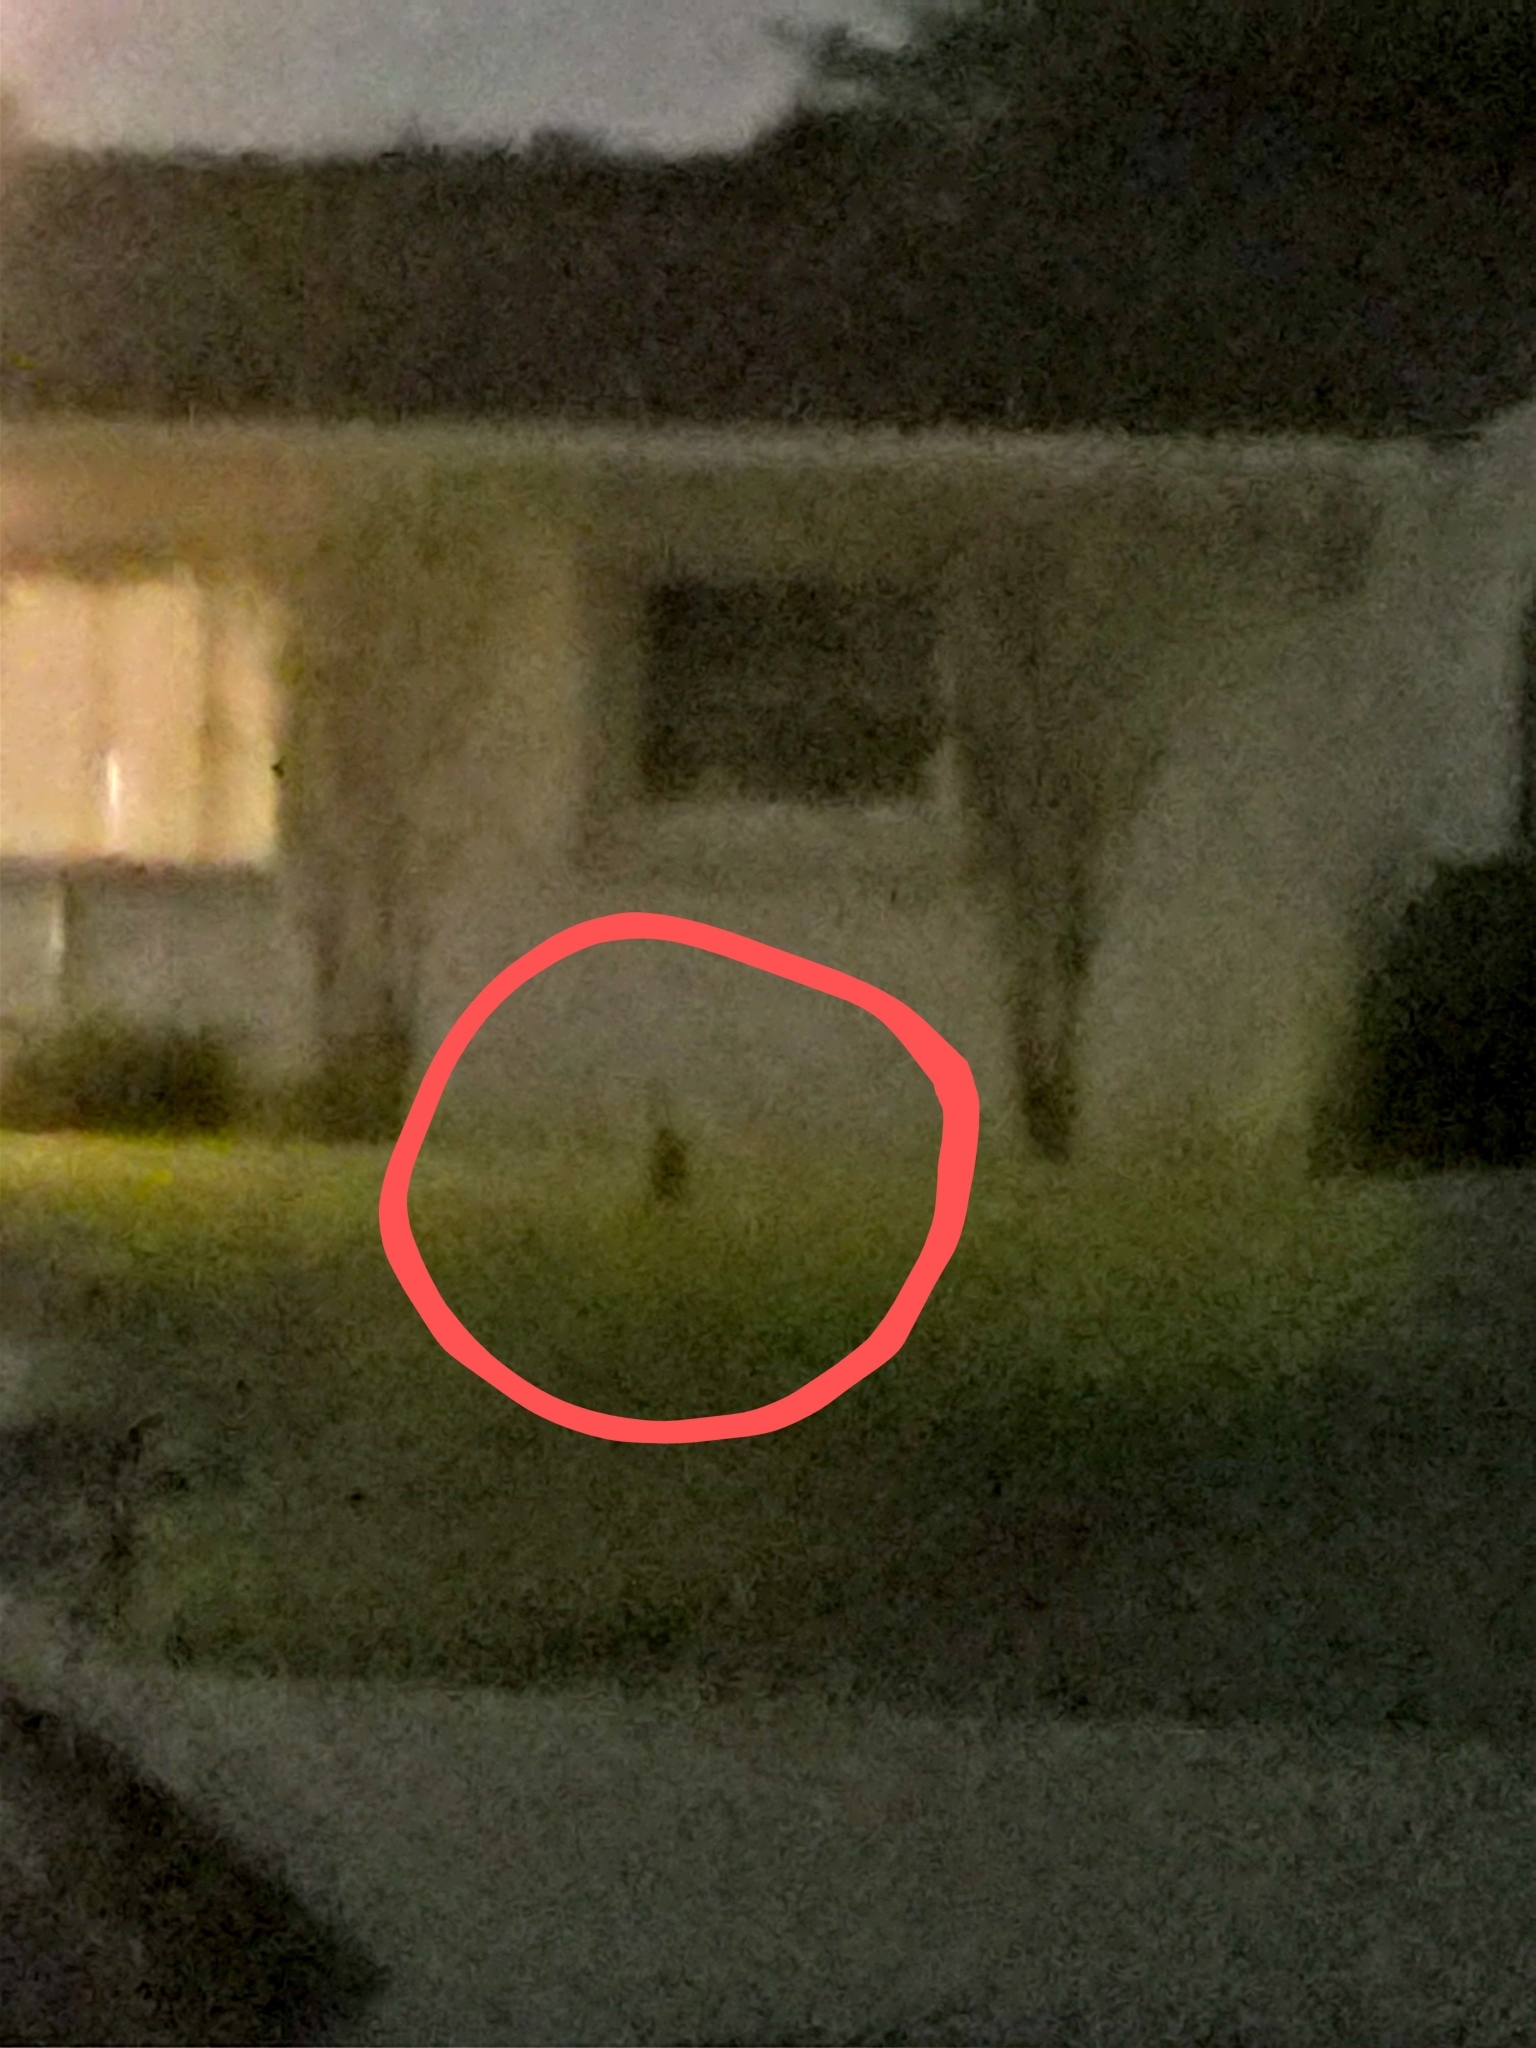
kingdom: Animalia
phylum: Chordata
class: Aves
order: Pelecaniformes
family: Ardeidae
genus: Nyctanassa
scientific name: Nyctanassa violacea
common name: Yellow-crowned night heron
